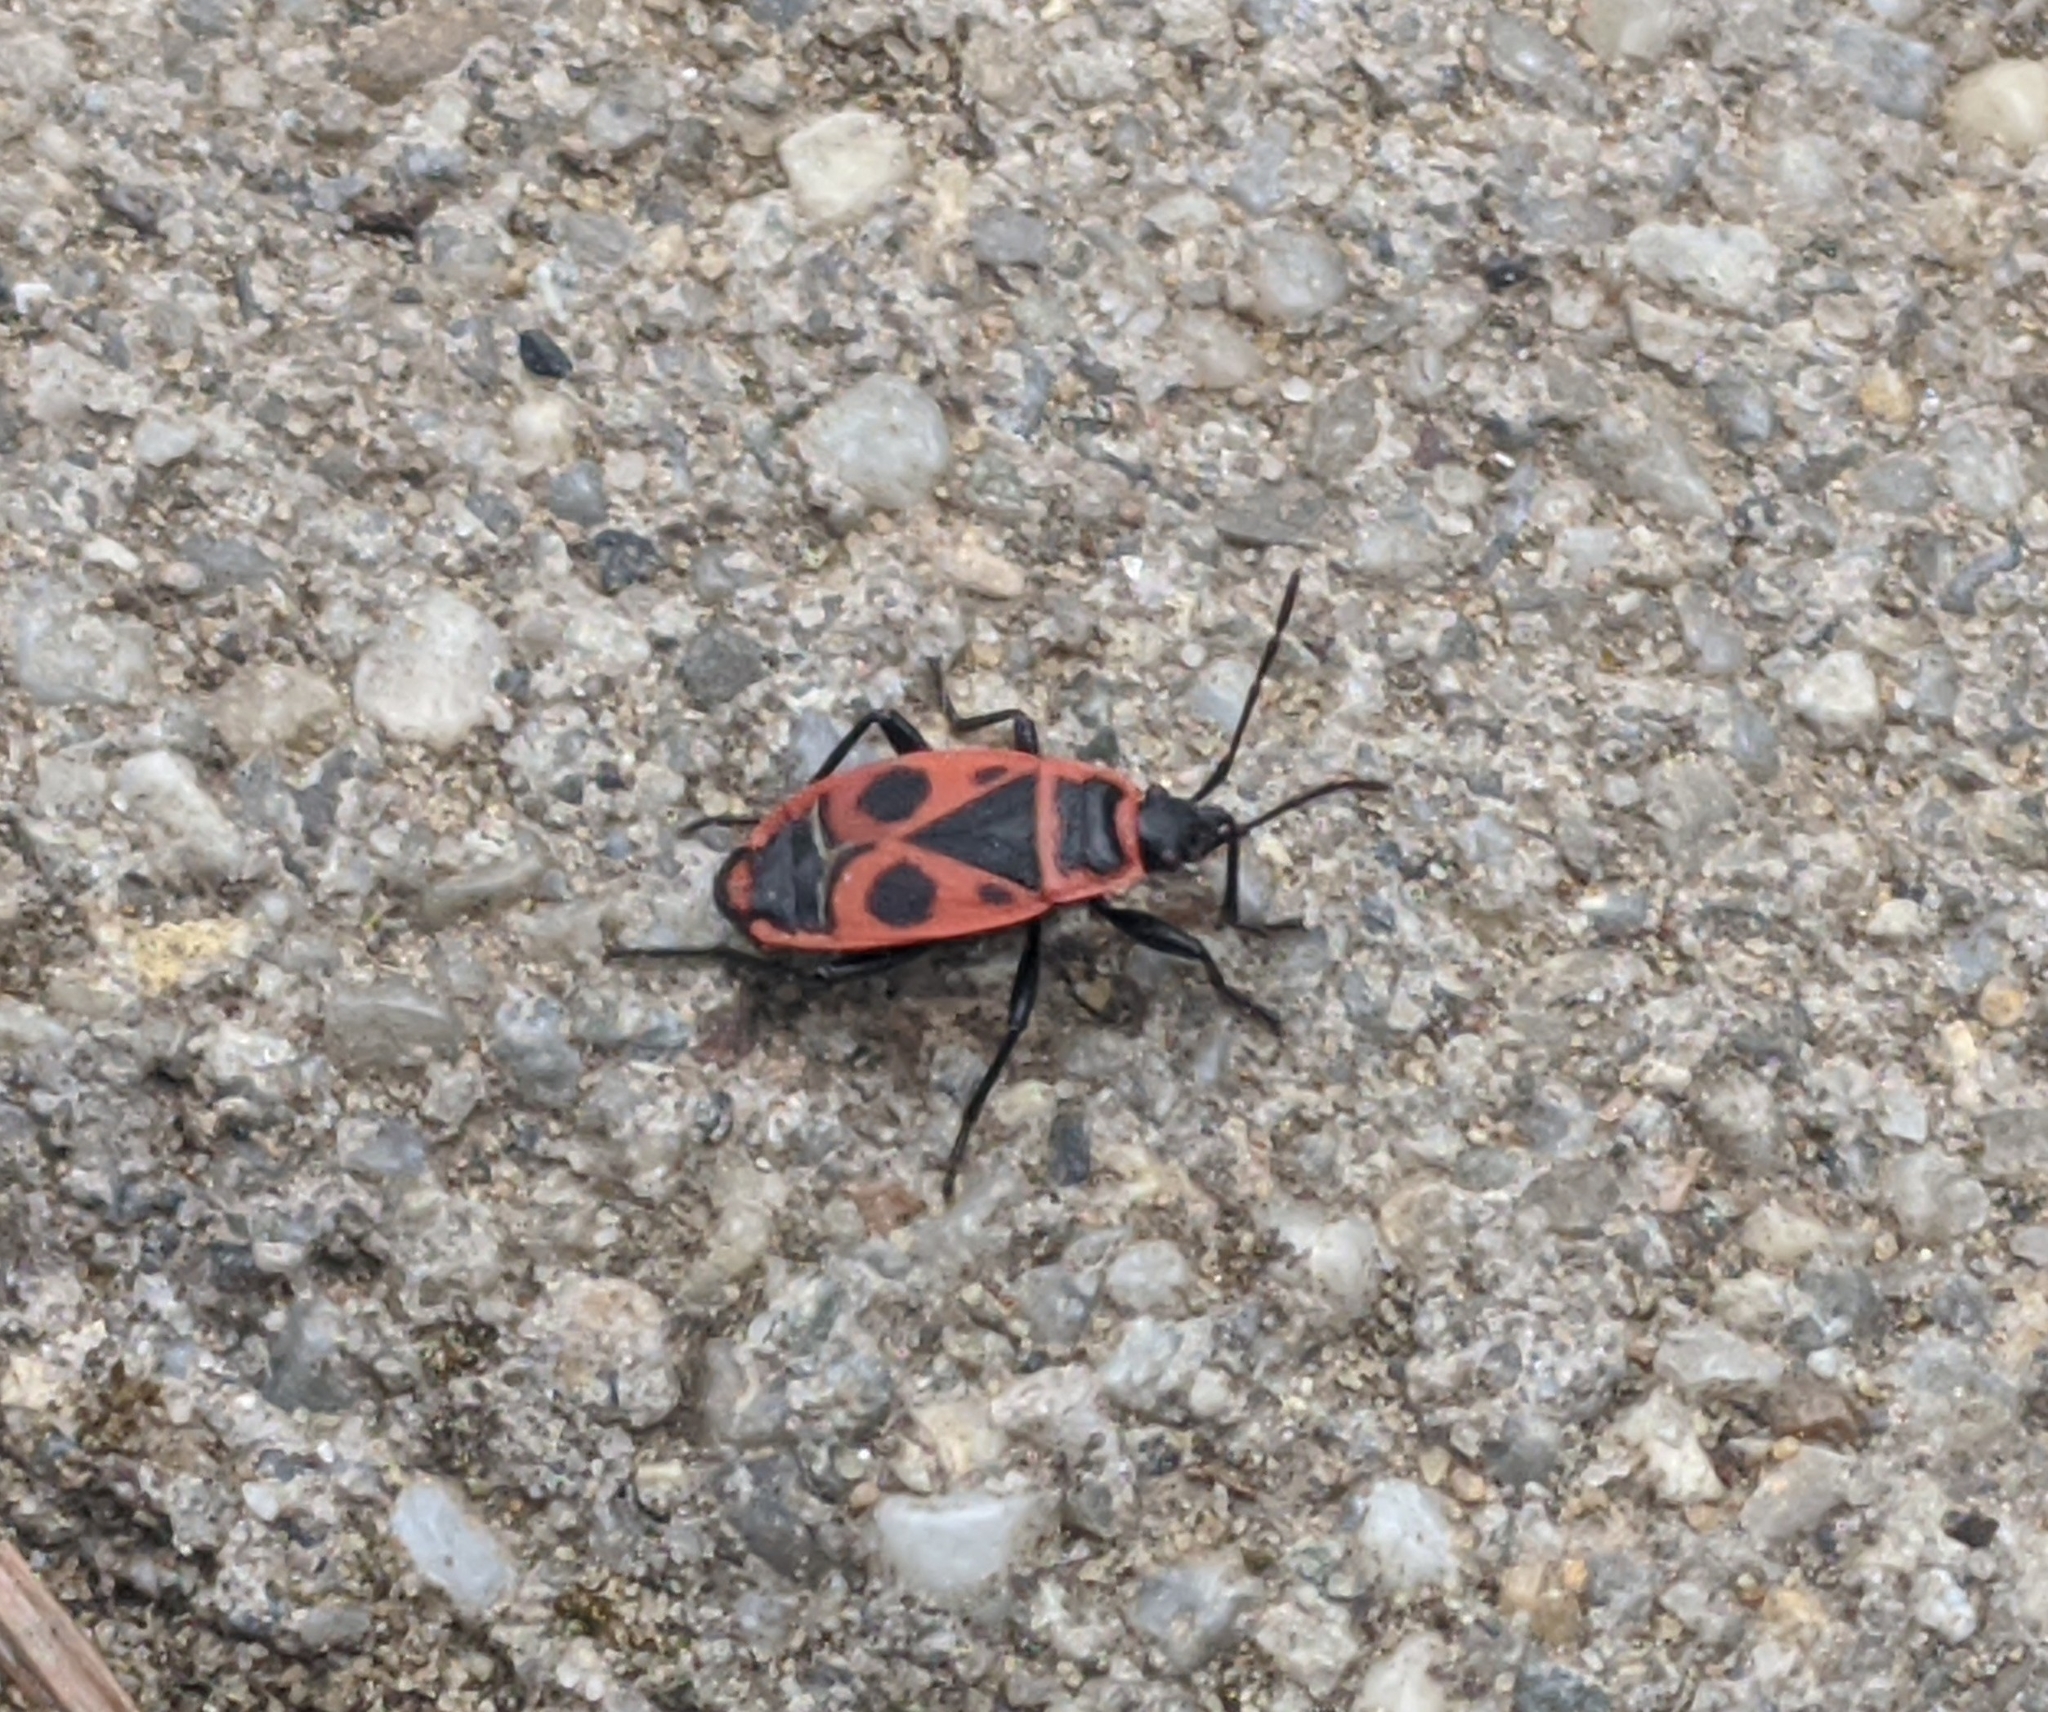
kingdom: Animalia
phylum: Arthropoda
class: Insecta
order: Hemiptera
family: Pyrrhocoridae
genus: Pyrrhocoris
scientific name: Pyrrhocoris apterus
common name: Firebug
